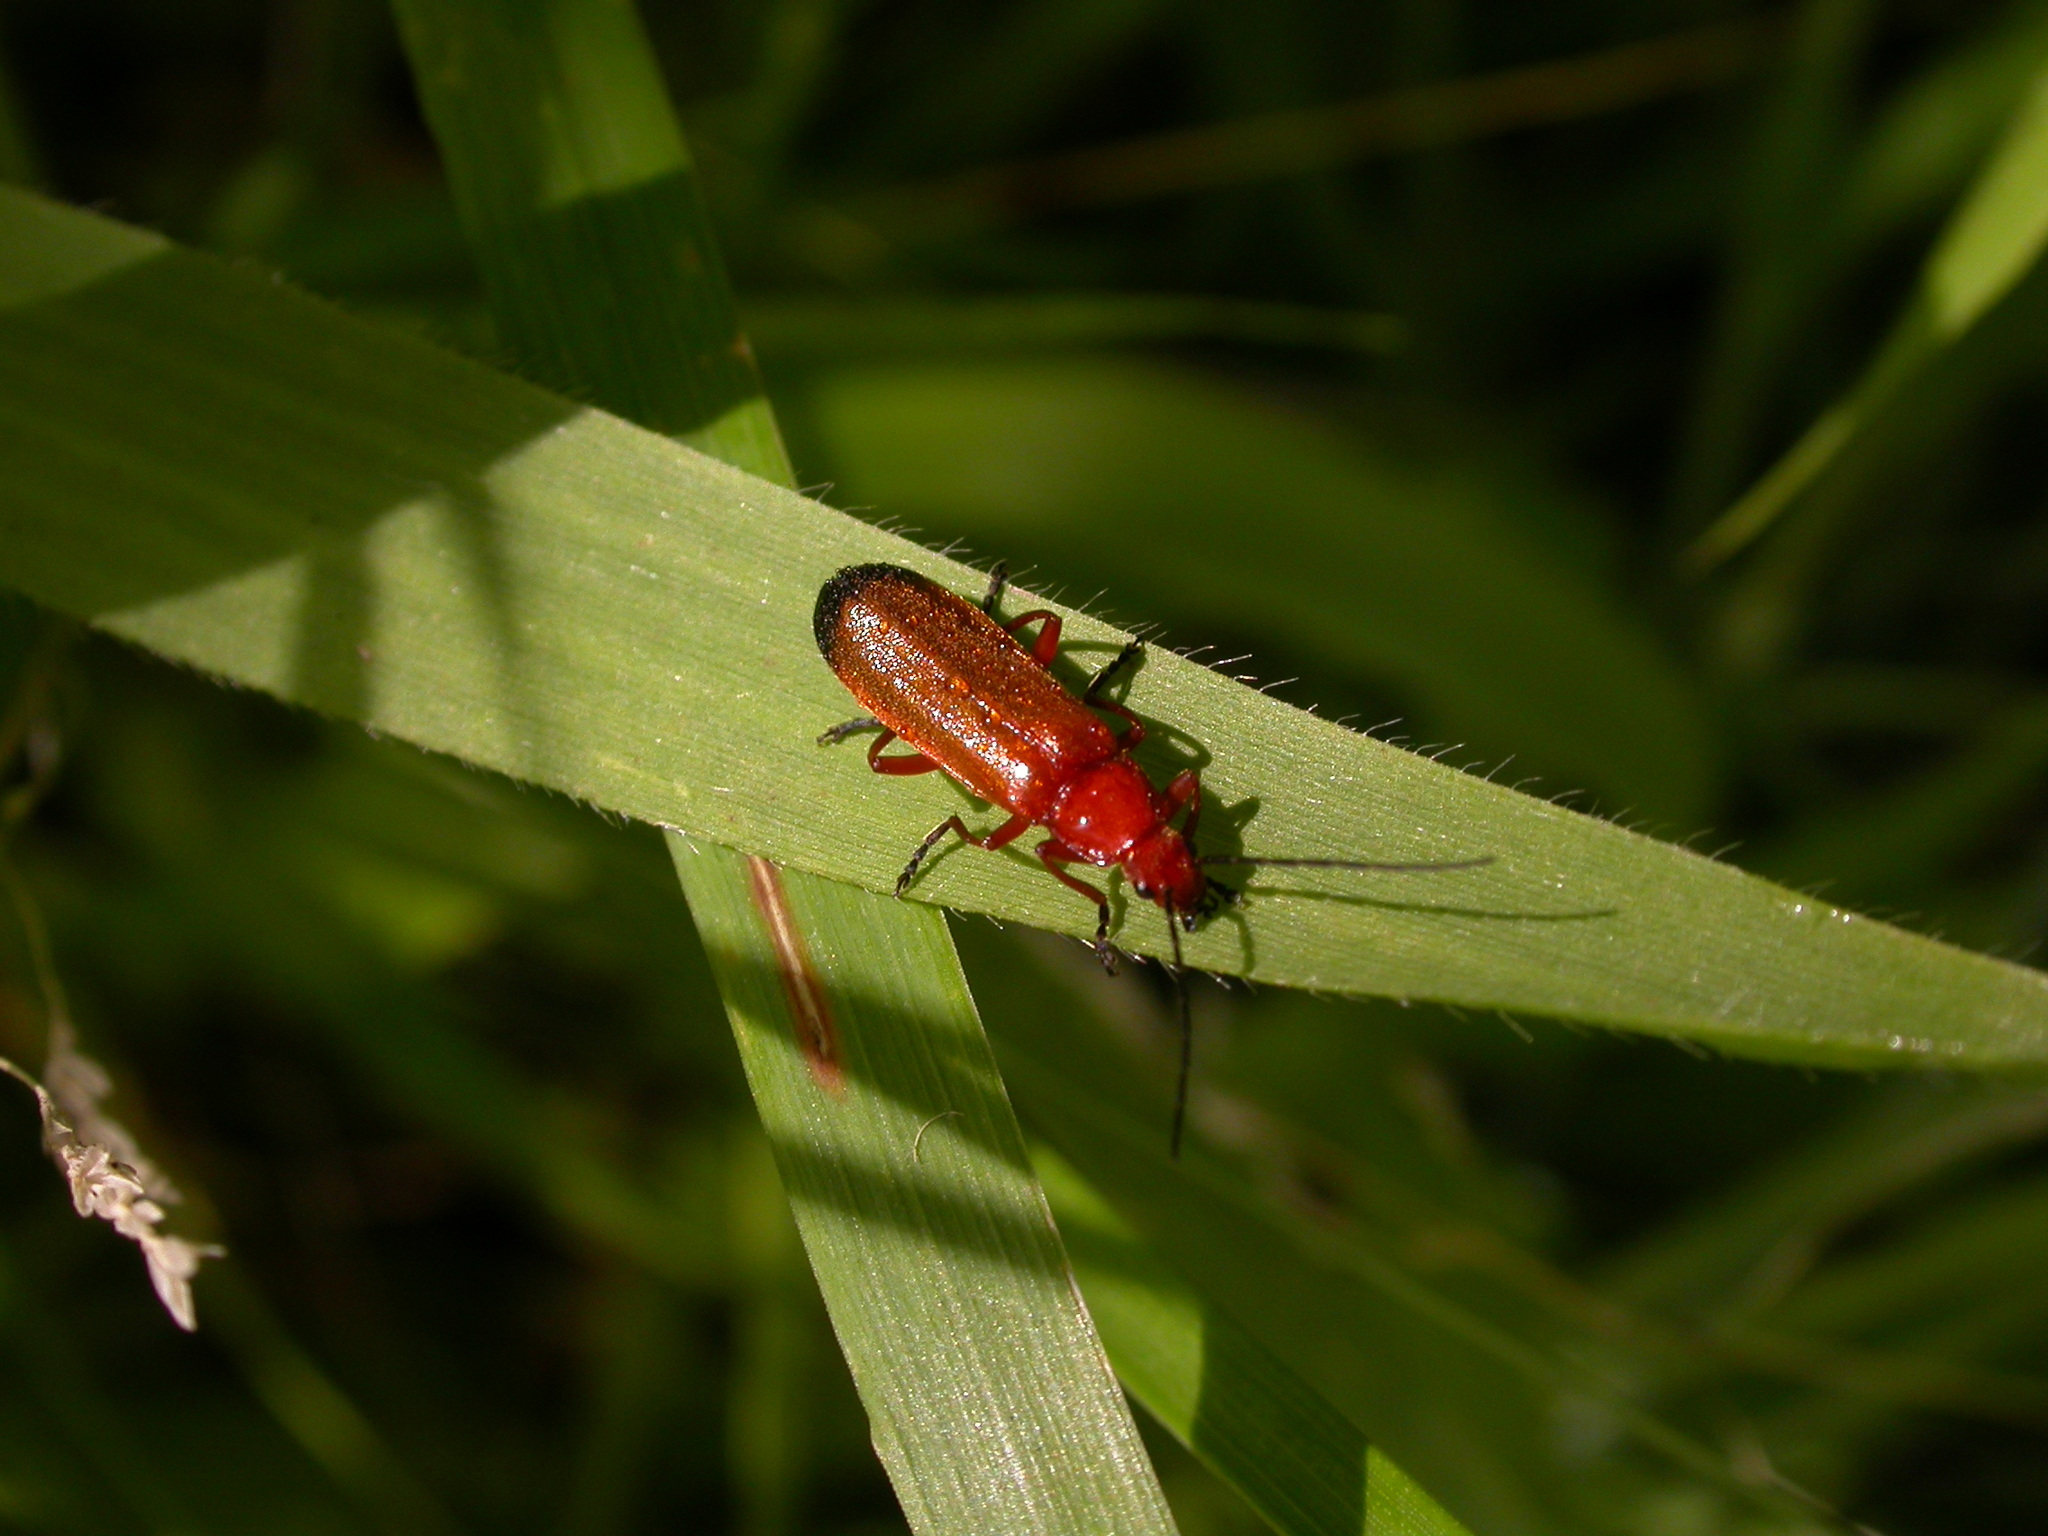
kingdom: Animalia
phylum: Arthropoda
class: Insecta
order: Coleoptera
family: Cantharidae
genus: Rhagonycha
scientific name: Rhagonycha fulva
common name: Common red soldier beetle
